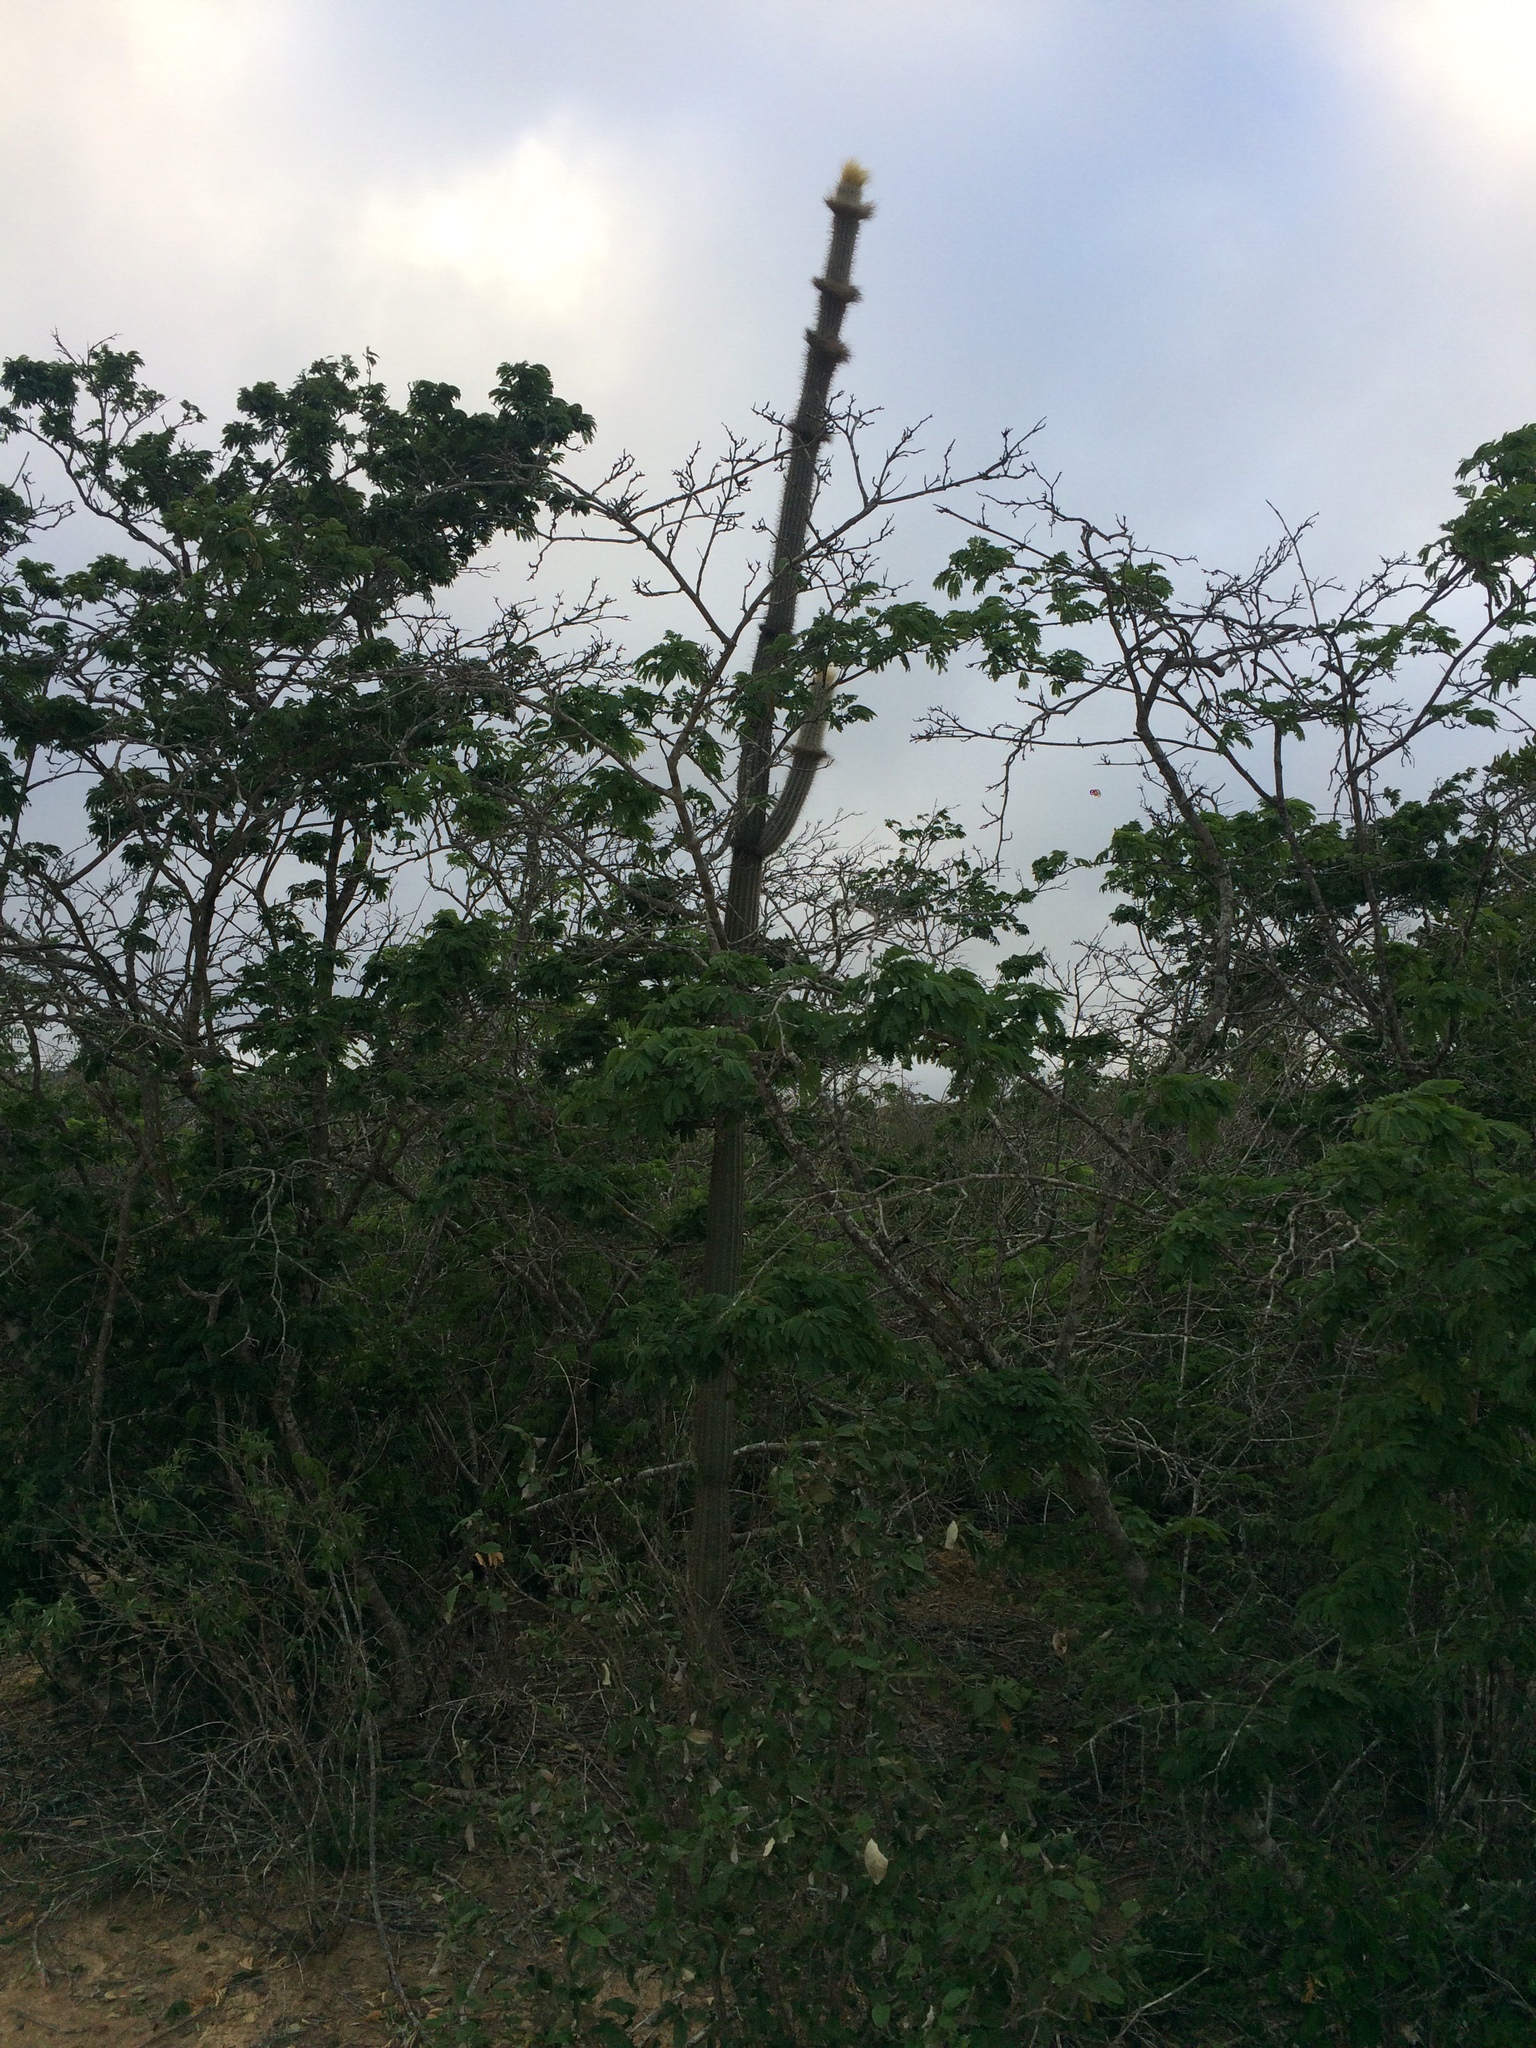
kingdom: Plantae
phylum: Tracheophyta
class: Magnoliopsida
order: Caryophyllales
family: Cactaceae
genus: Arrojadoa
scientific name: Arrojadoa leucostele
